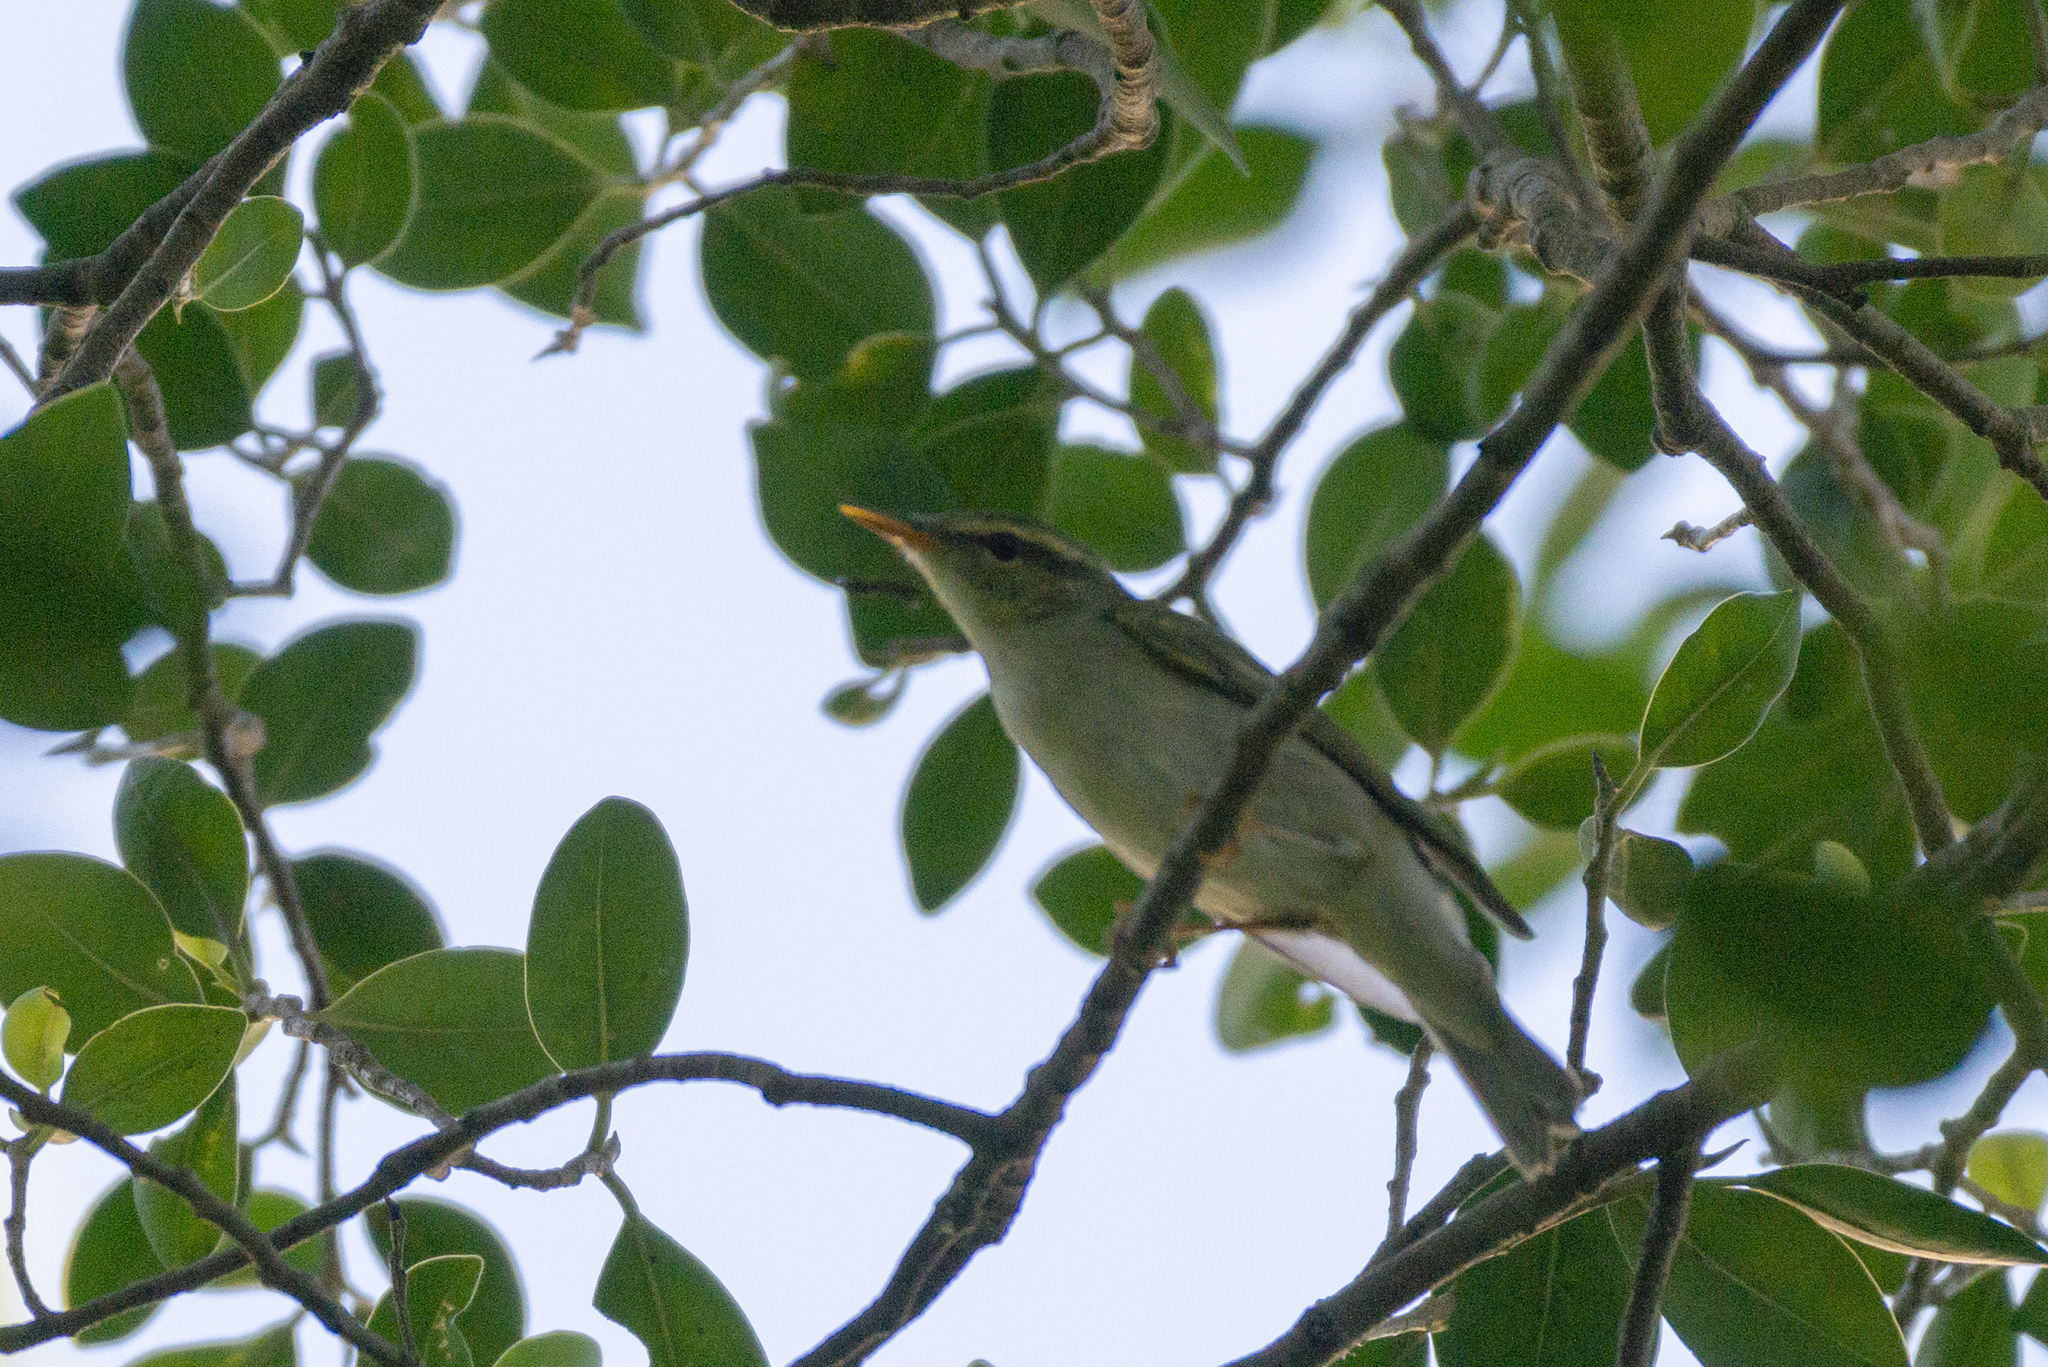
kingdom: Animalia
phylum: Chordata
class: Aves
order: Passeriformes
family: Phylloscopidae
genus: Phylloscopus
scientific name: Phylloscopus borealis
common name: Arctic warbler
